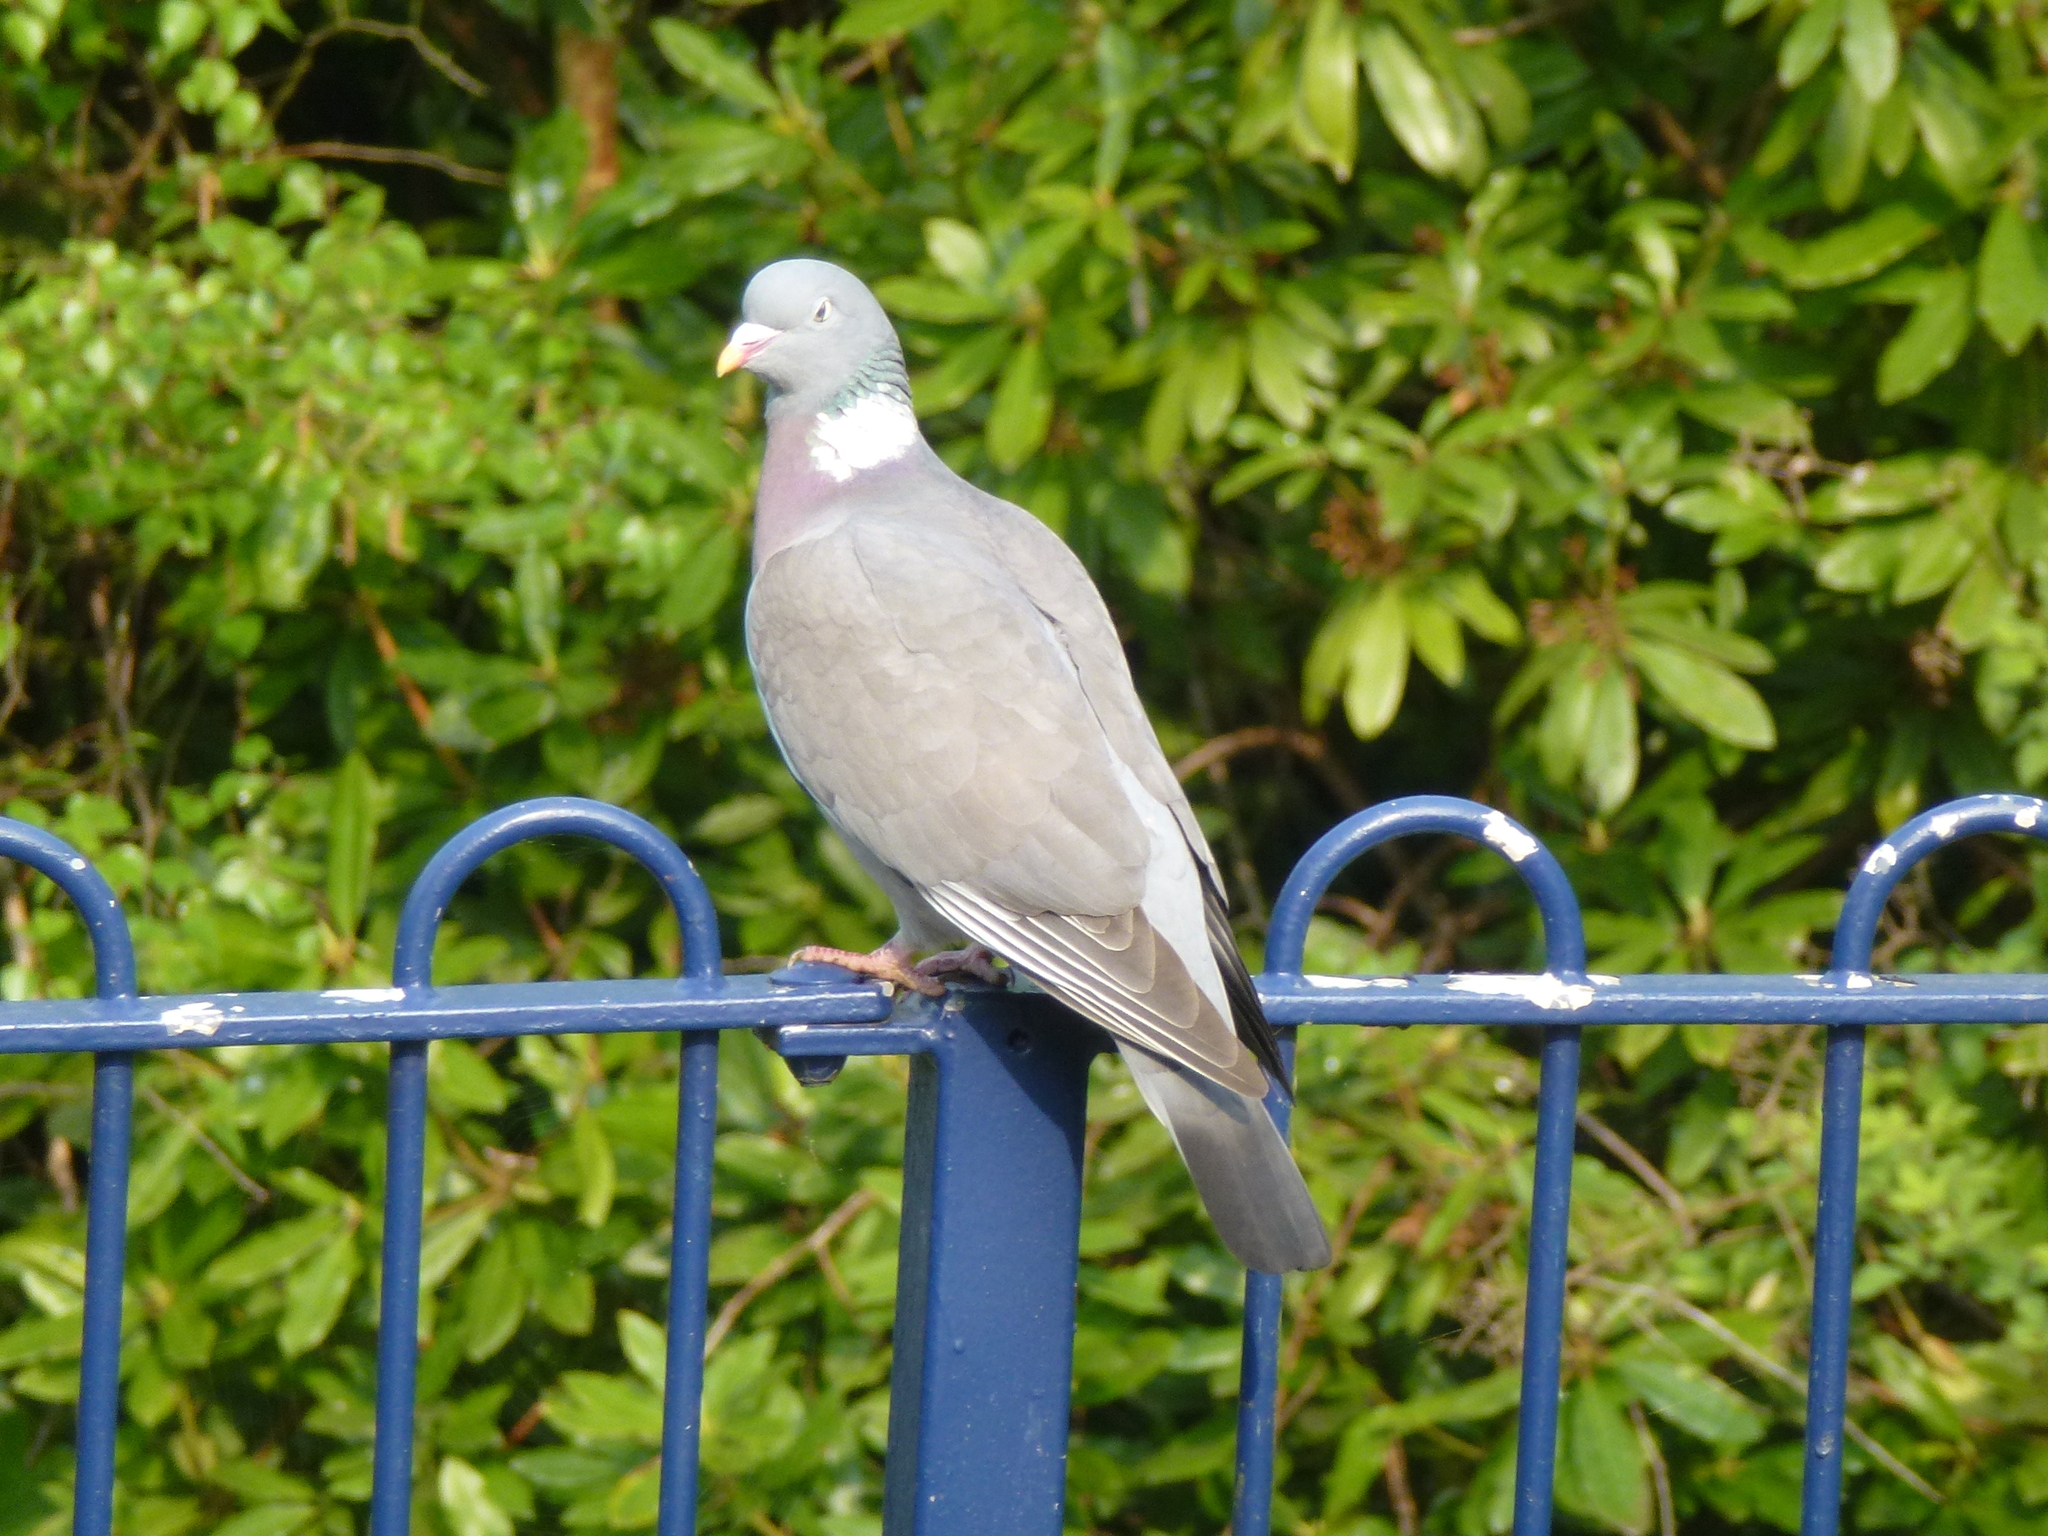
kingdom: Animalia
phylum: Chordata
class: Aves
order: Columbiformes
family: Columbidae
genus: Columba
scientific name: Columba palumbus
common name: Common wood pigeon
